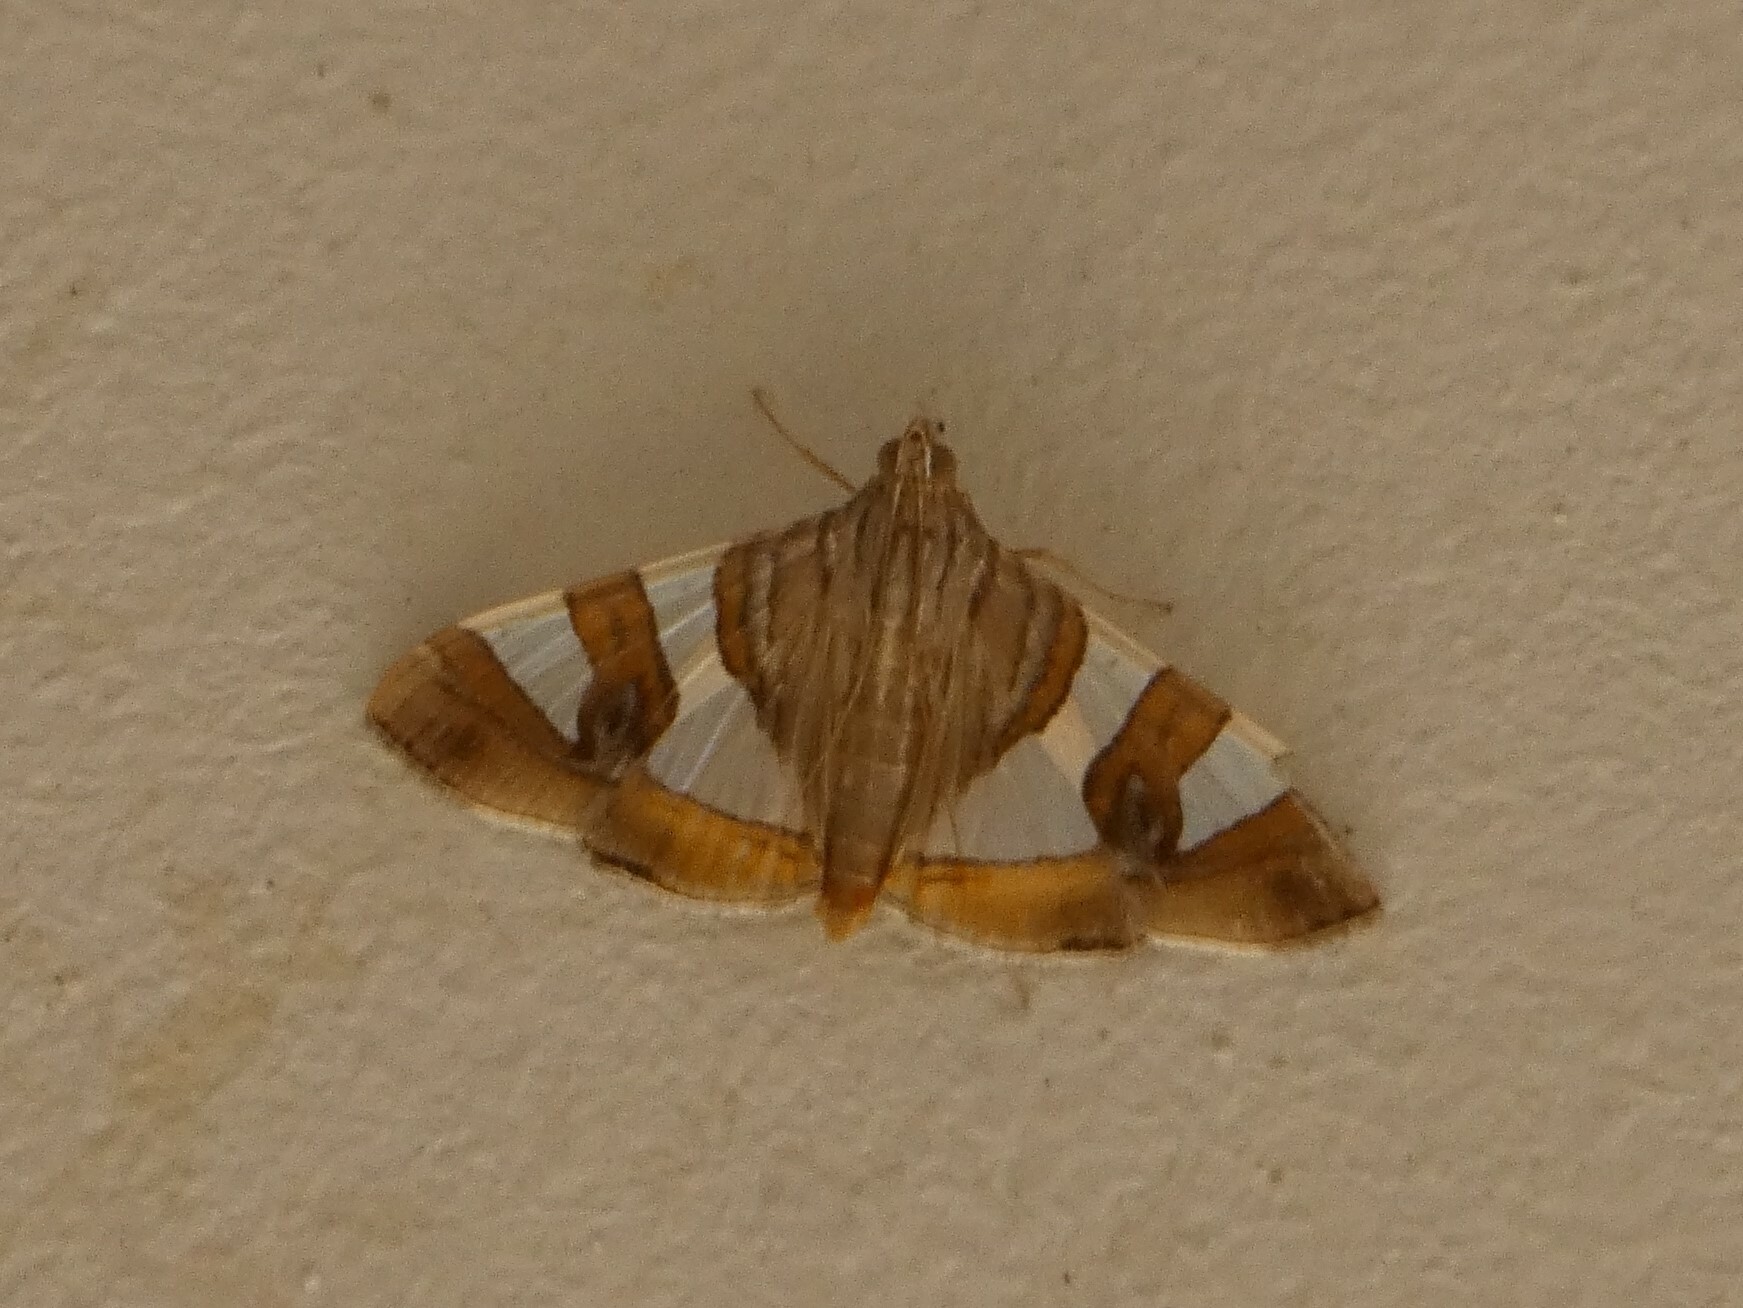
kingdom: Animalia
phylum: Arthropoda
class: Insecta
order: Lepidoptera
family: Crambidae
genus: Glyphodes
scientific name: Glyphodes bitriangulalis
